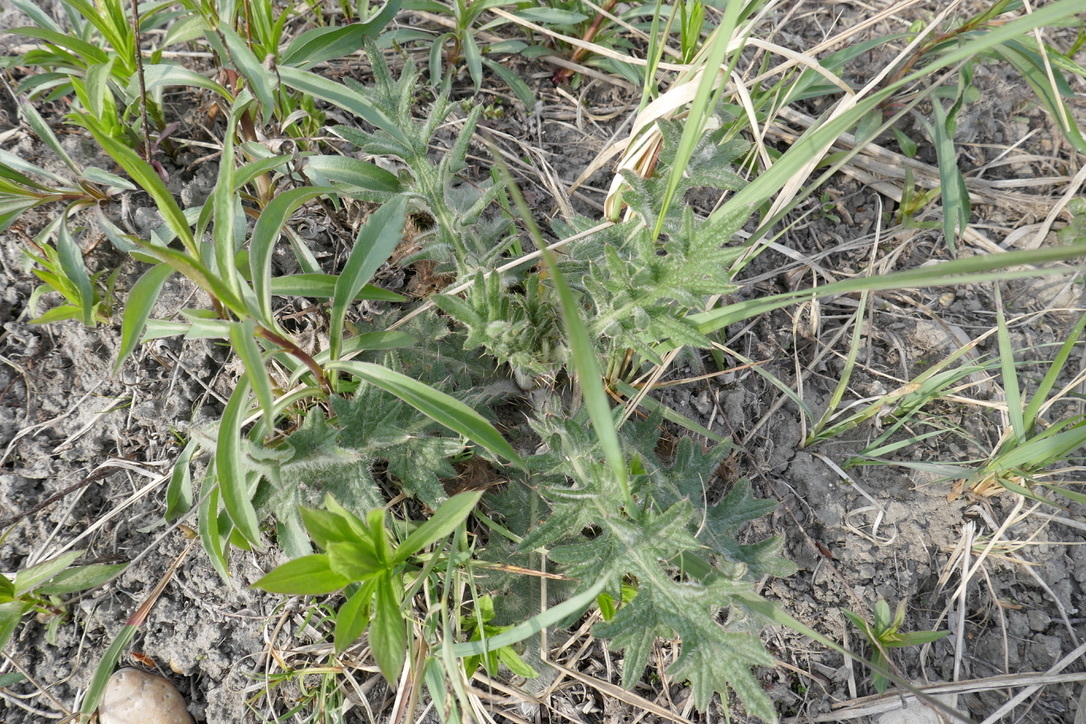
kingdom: Plantae
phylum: Tracheophyta
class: Magnoliopsida
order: Asterales
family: Asteraceae
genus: Cirsium
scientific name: Cirsium vulgare
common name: Bull thistle
